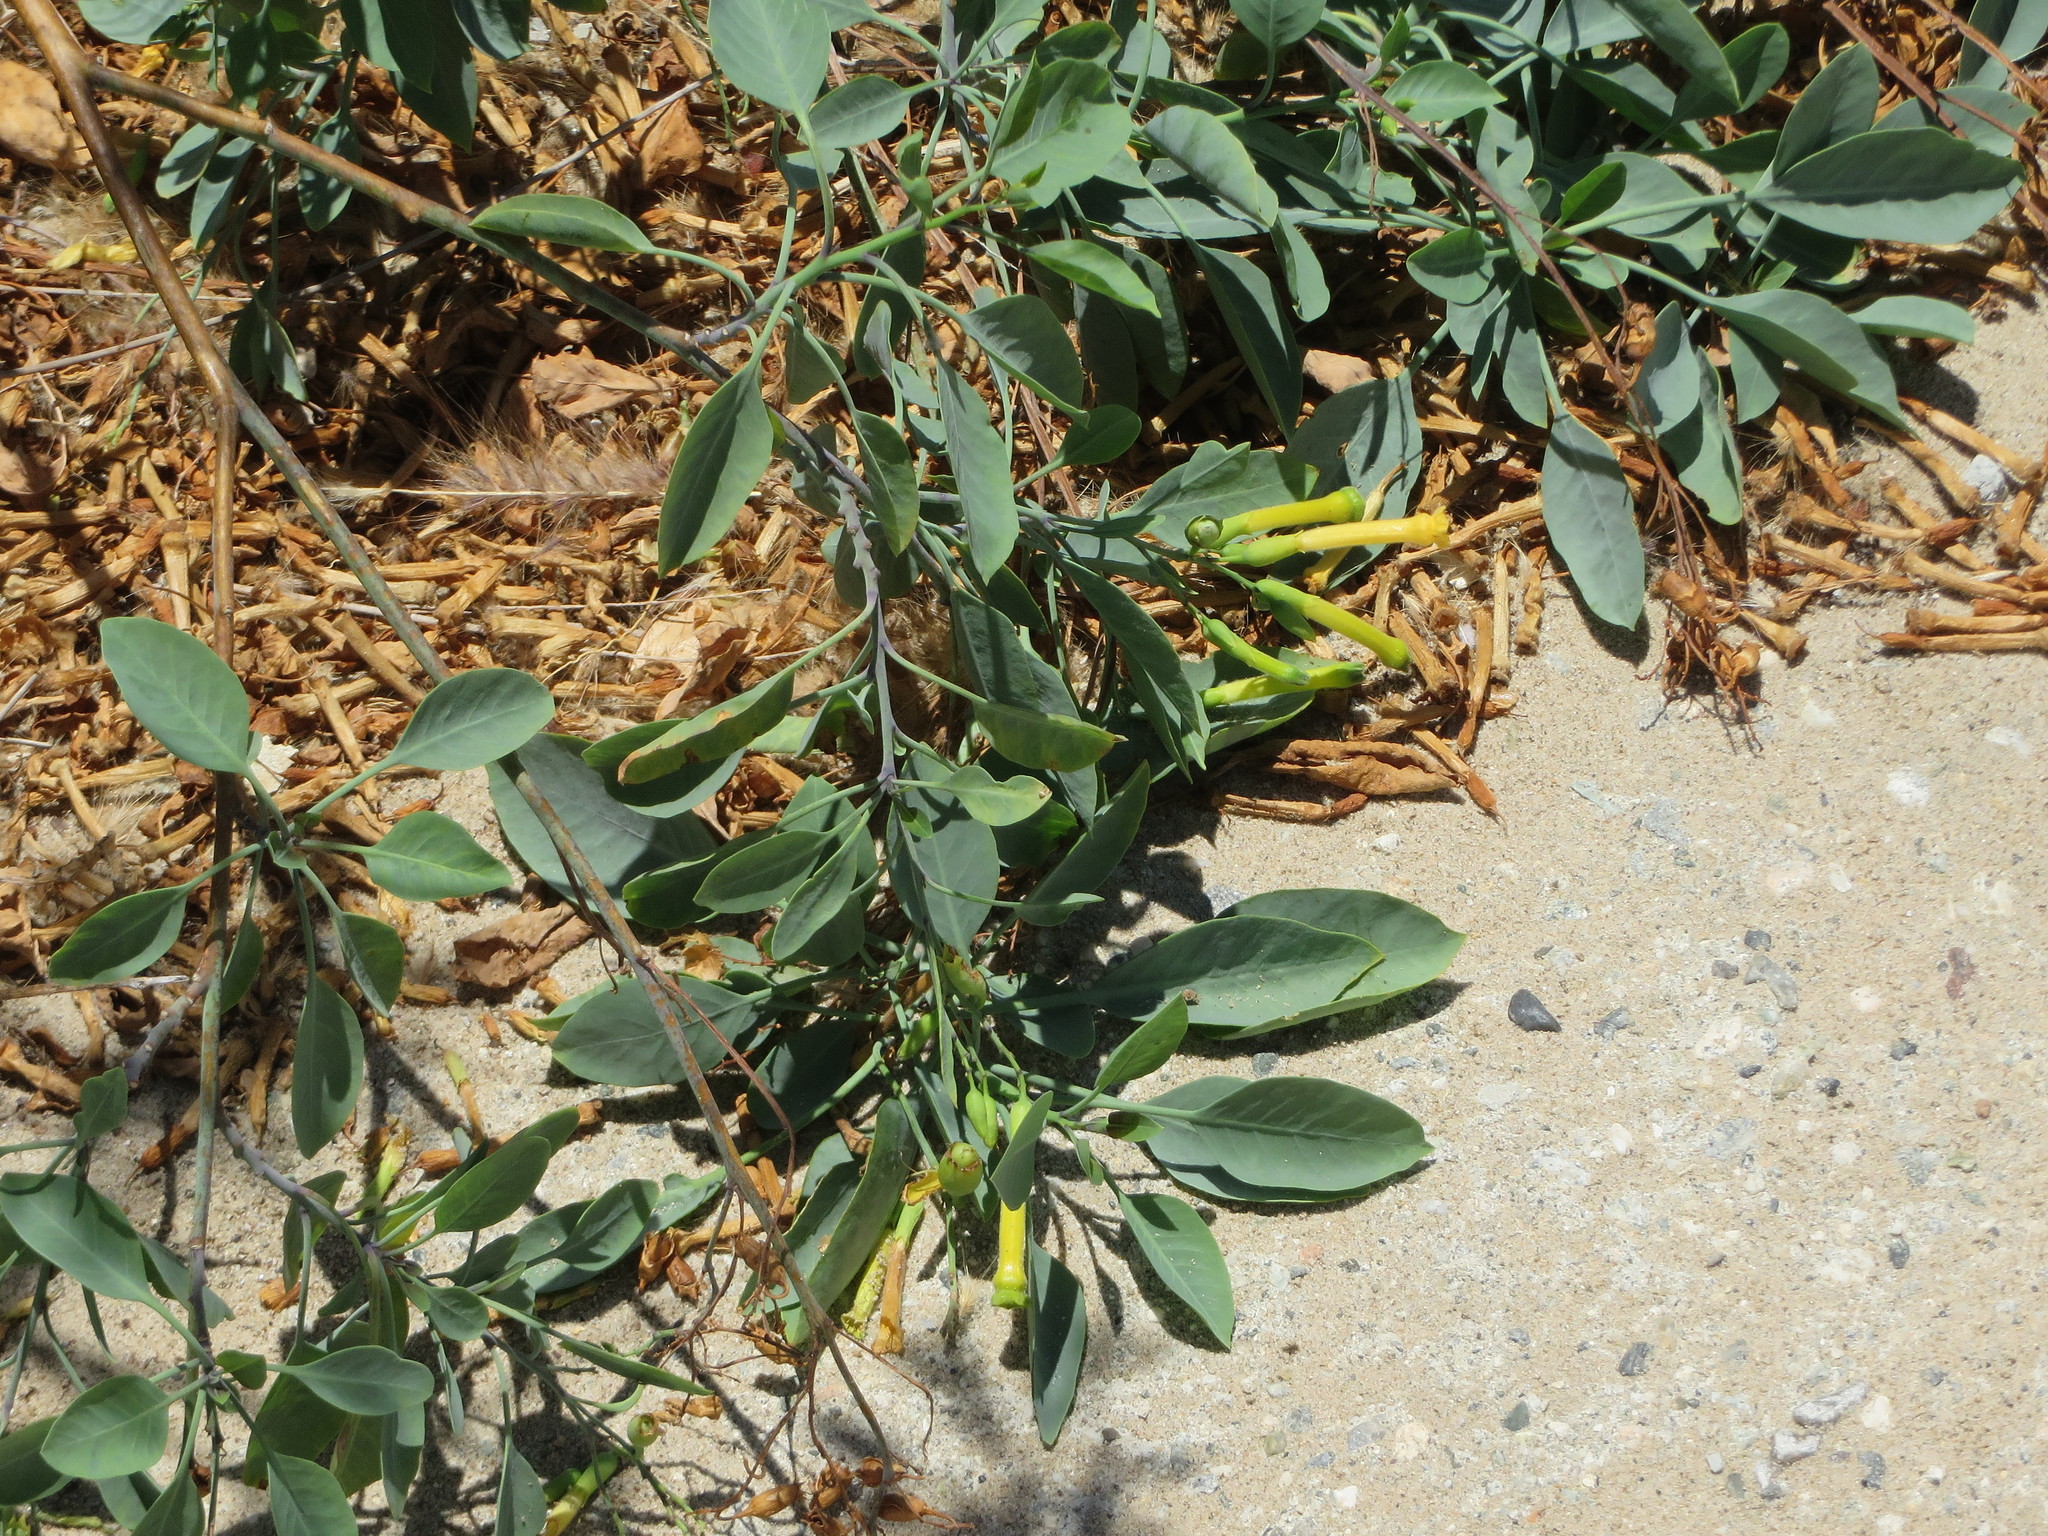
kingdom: Plantae
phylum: Tracheophyta
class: Magnoliopsida
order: Solanales
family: Solanaceae
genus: Nicotiana
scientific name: Nicotiana glauca
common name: Tree tobacco
